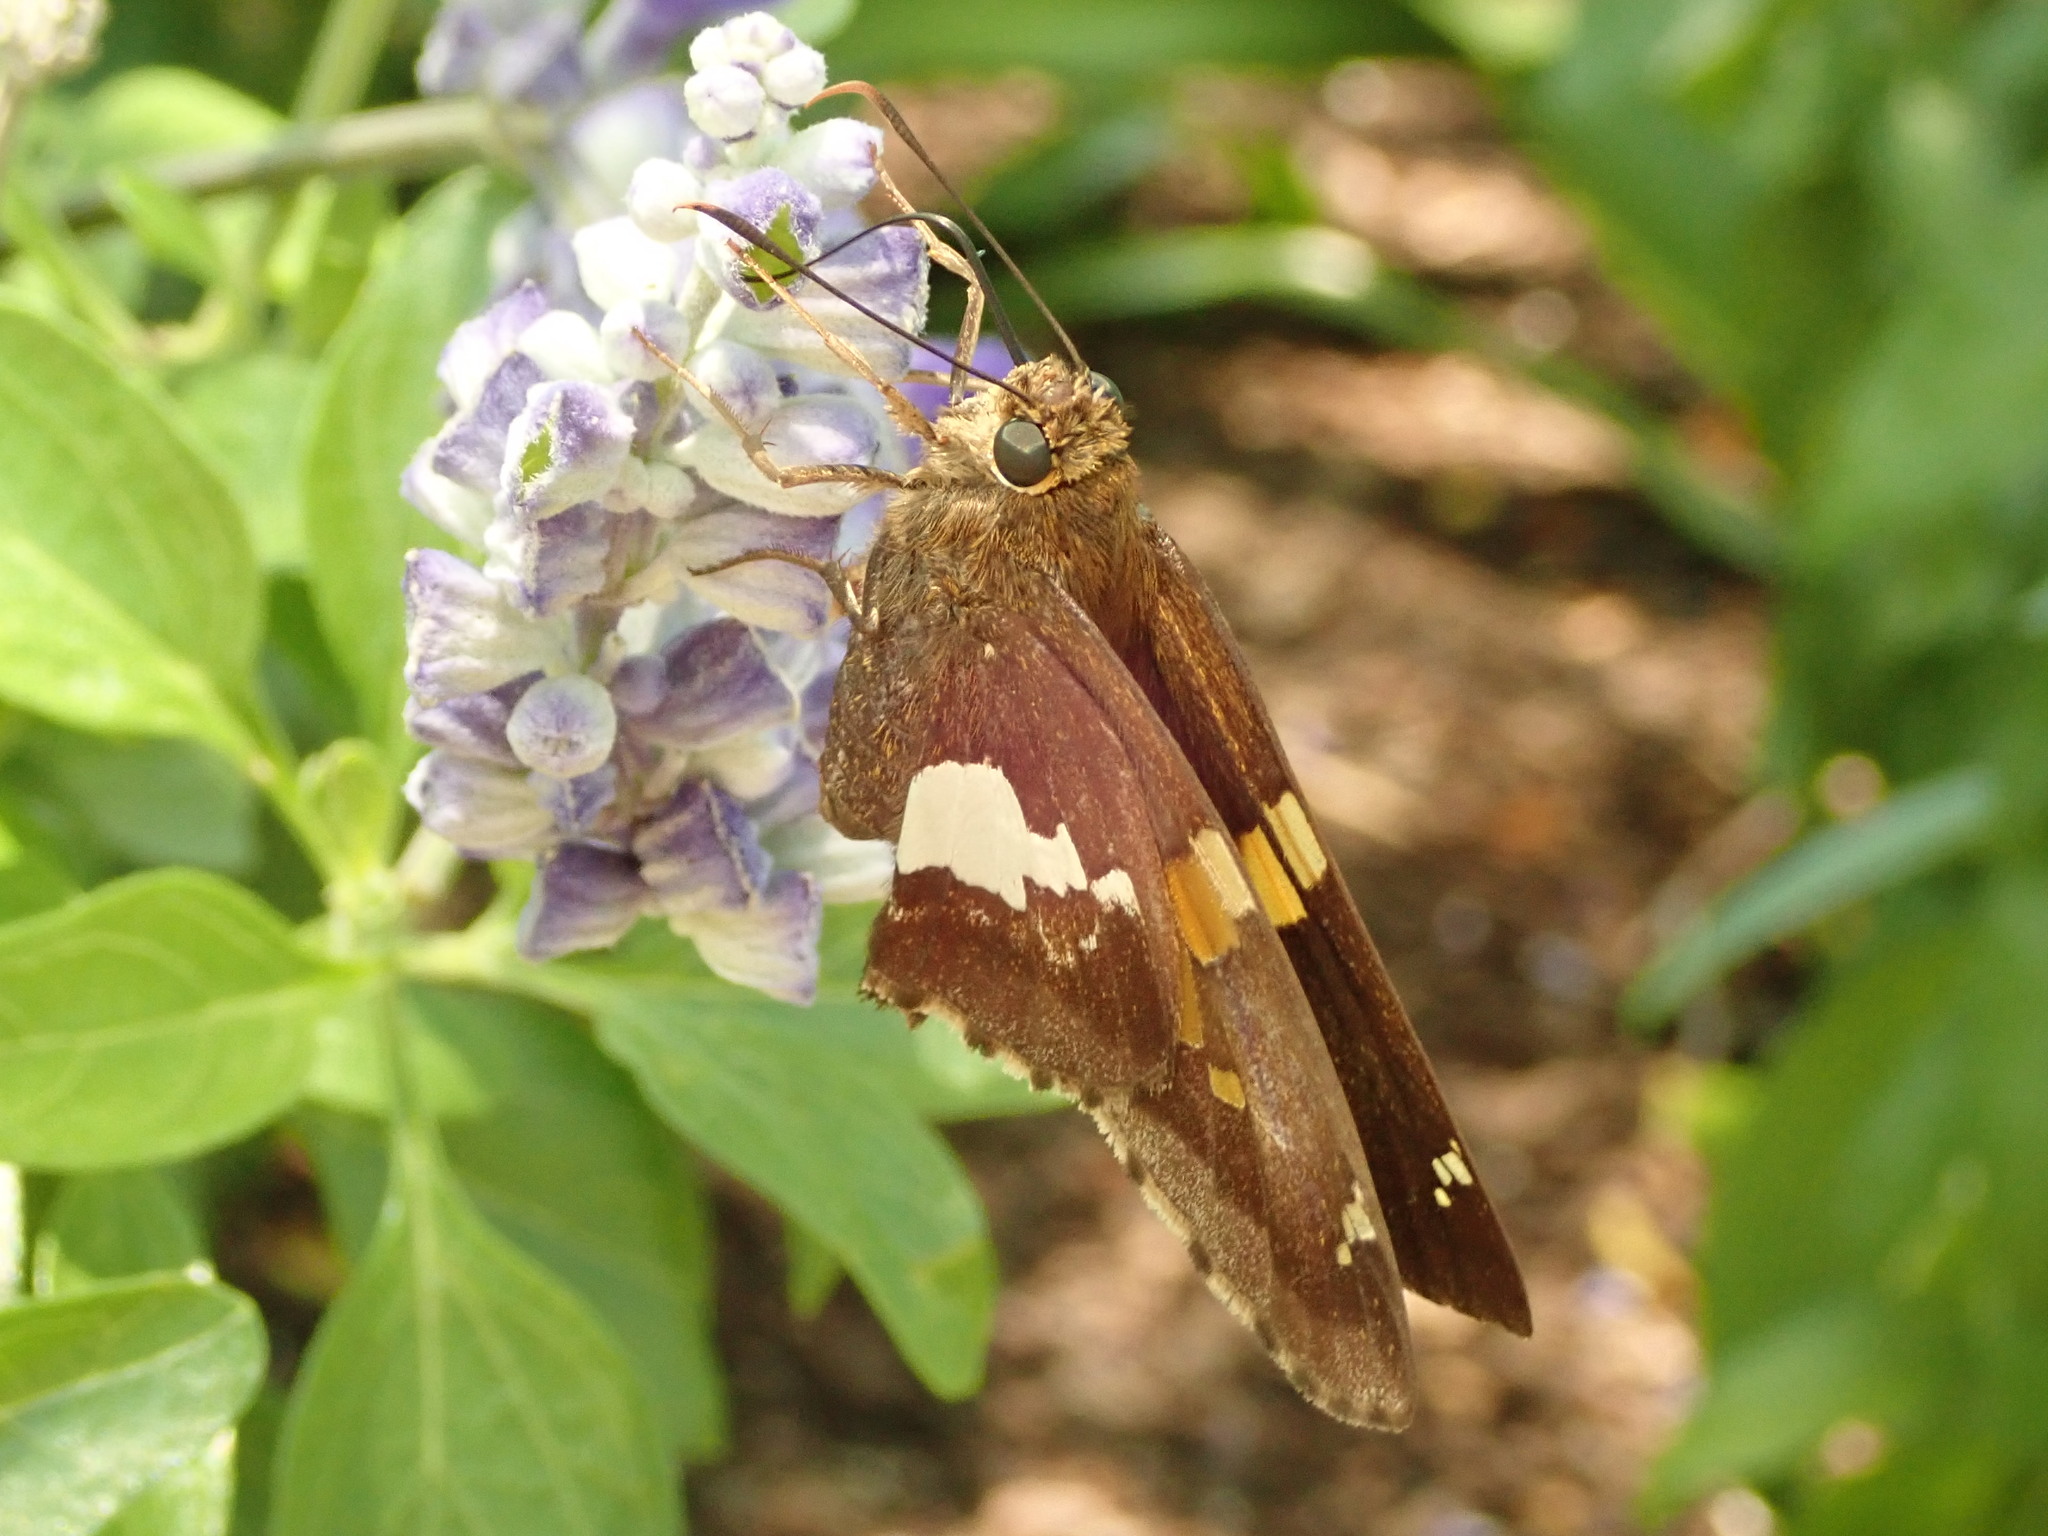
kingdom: Animalia
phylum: Arthropoda
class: Insecta
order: Lepidoptera
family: Hesperiidae
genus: Epargyreus
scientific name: Epargyreus clarus
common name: Silver-spotted skipper
